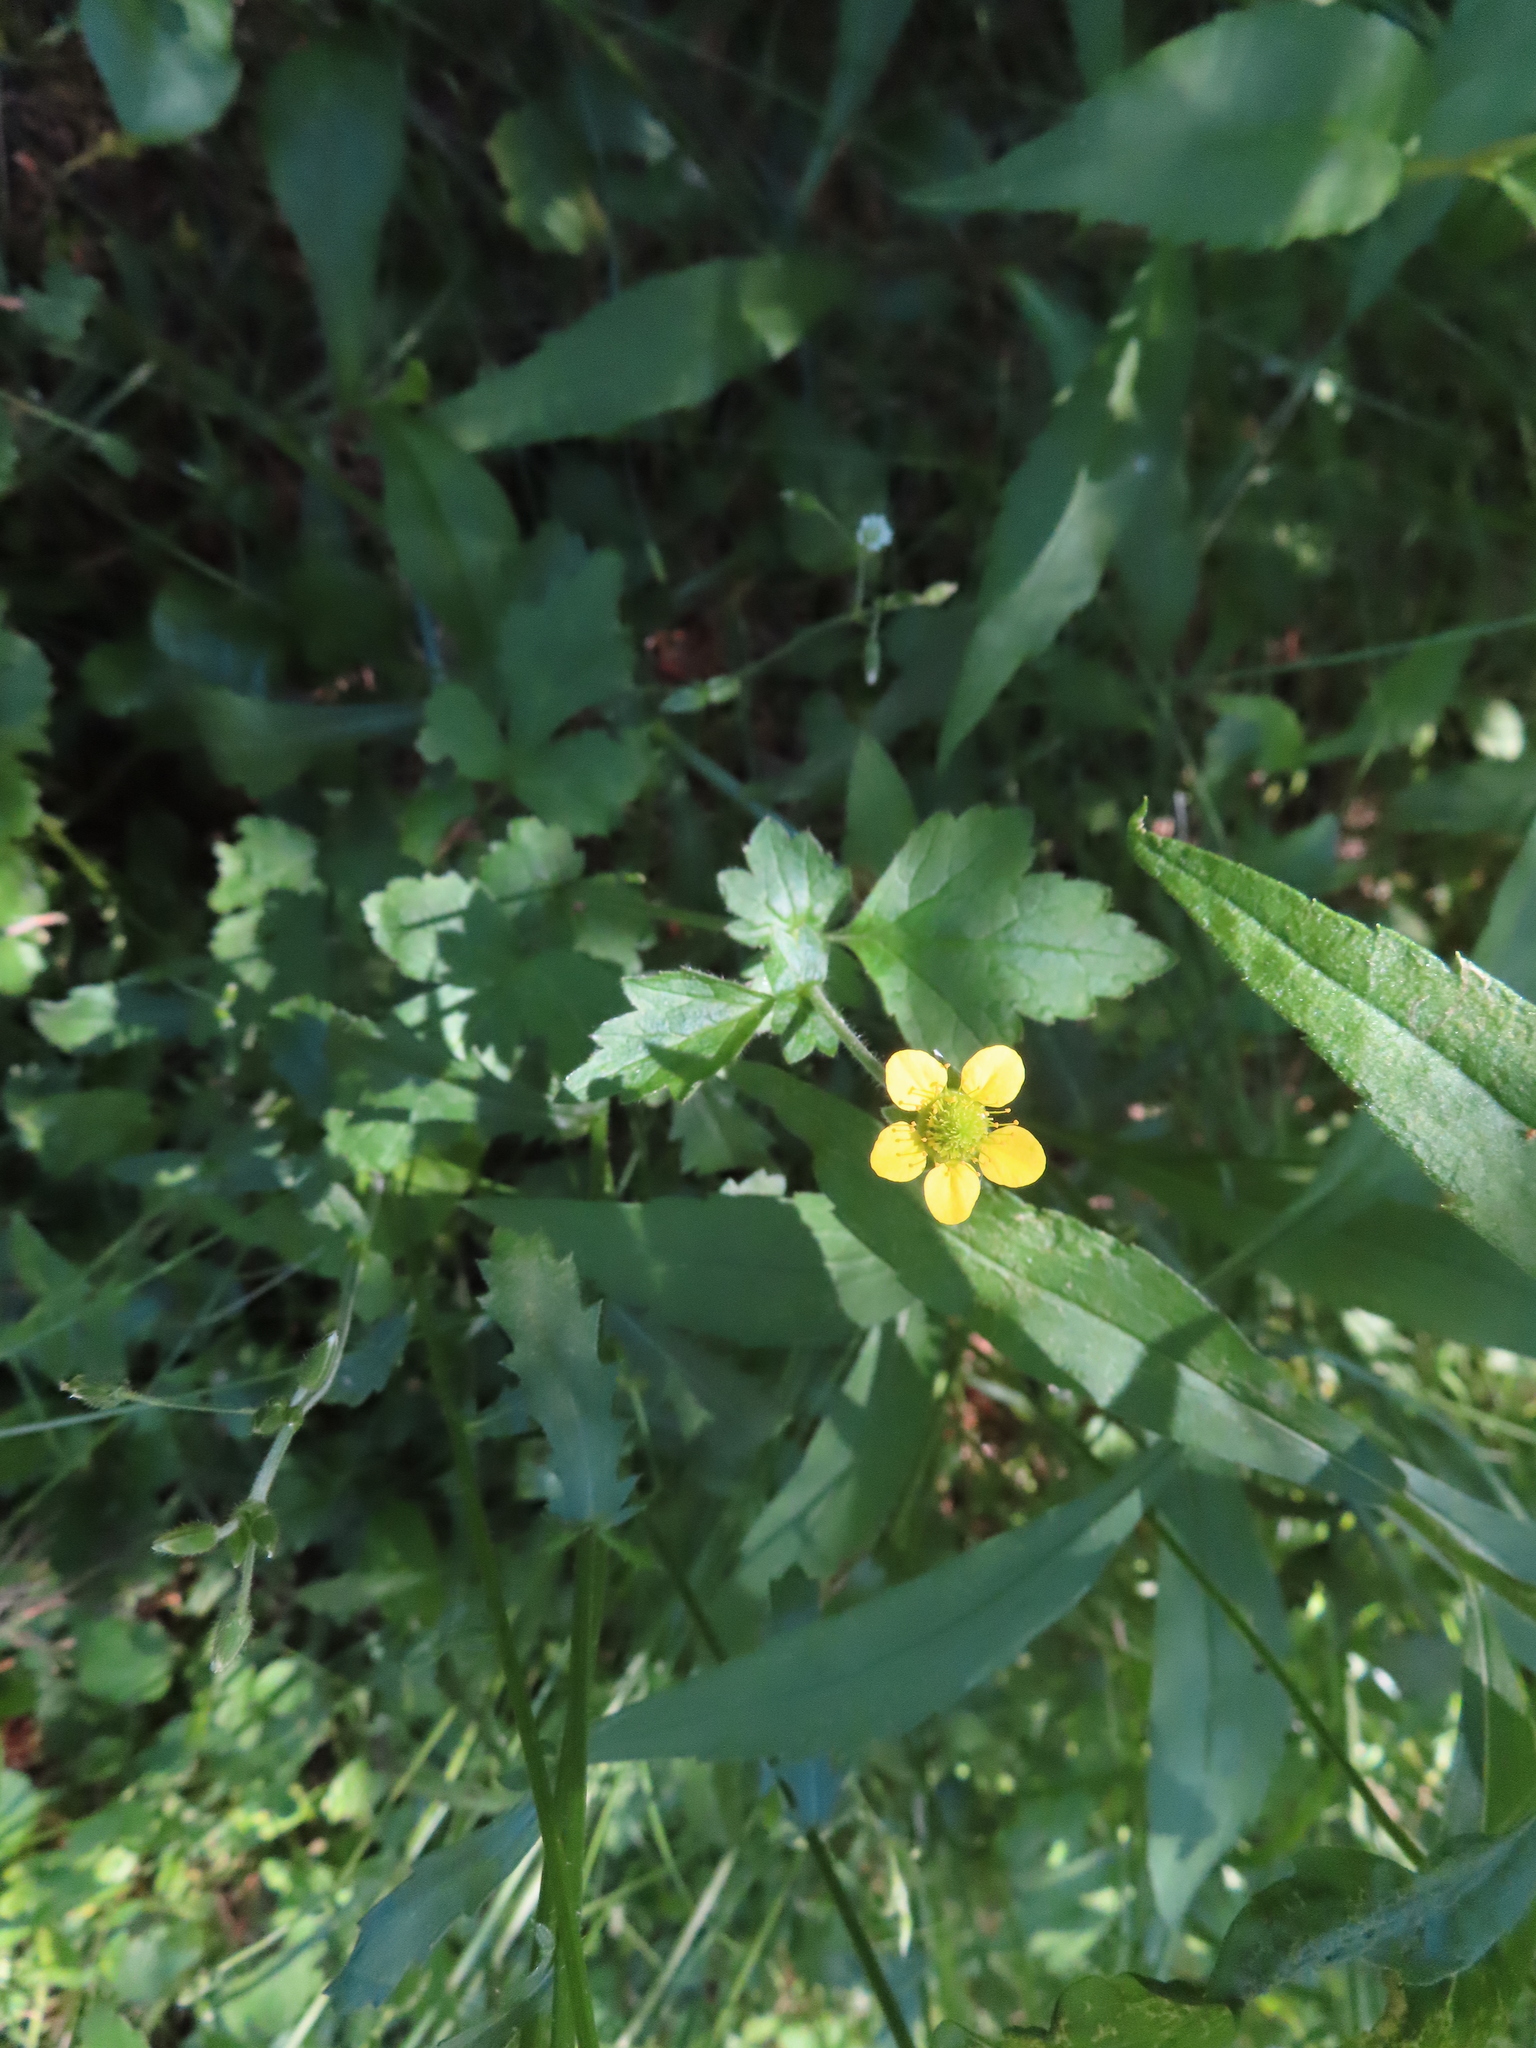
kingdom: Plantae
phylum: Tracheophyta
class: Magnoliopsida
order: Rosales
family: Rosaceae
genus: Geum
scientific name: Geum urbanum
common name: Wood avens
